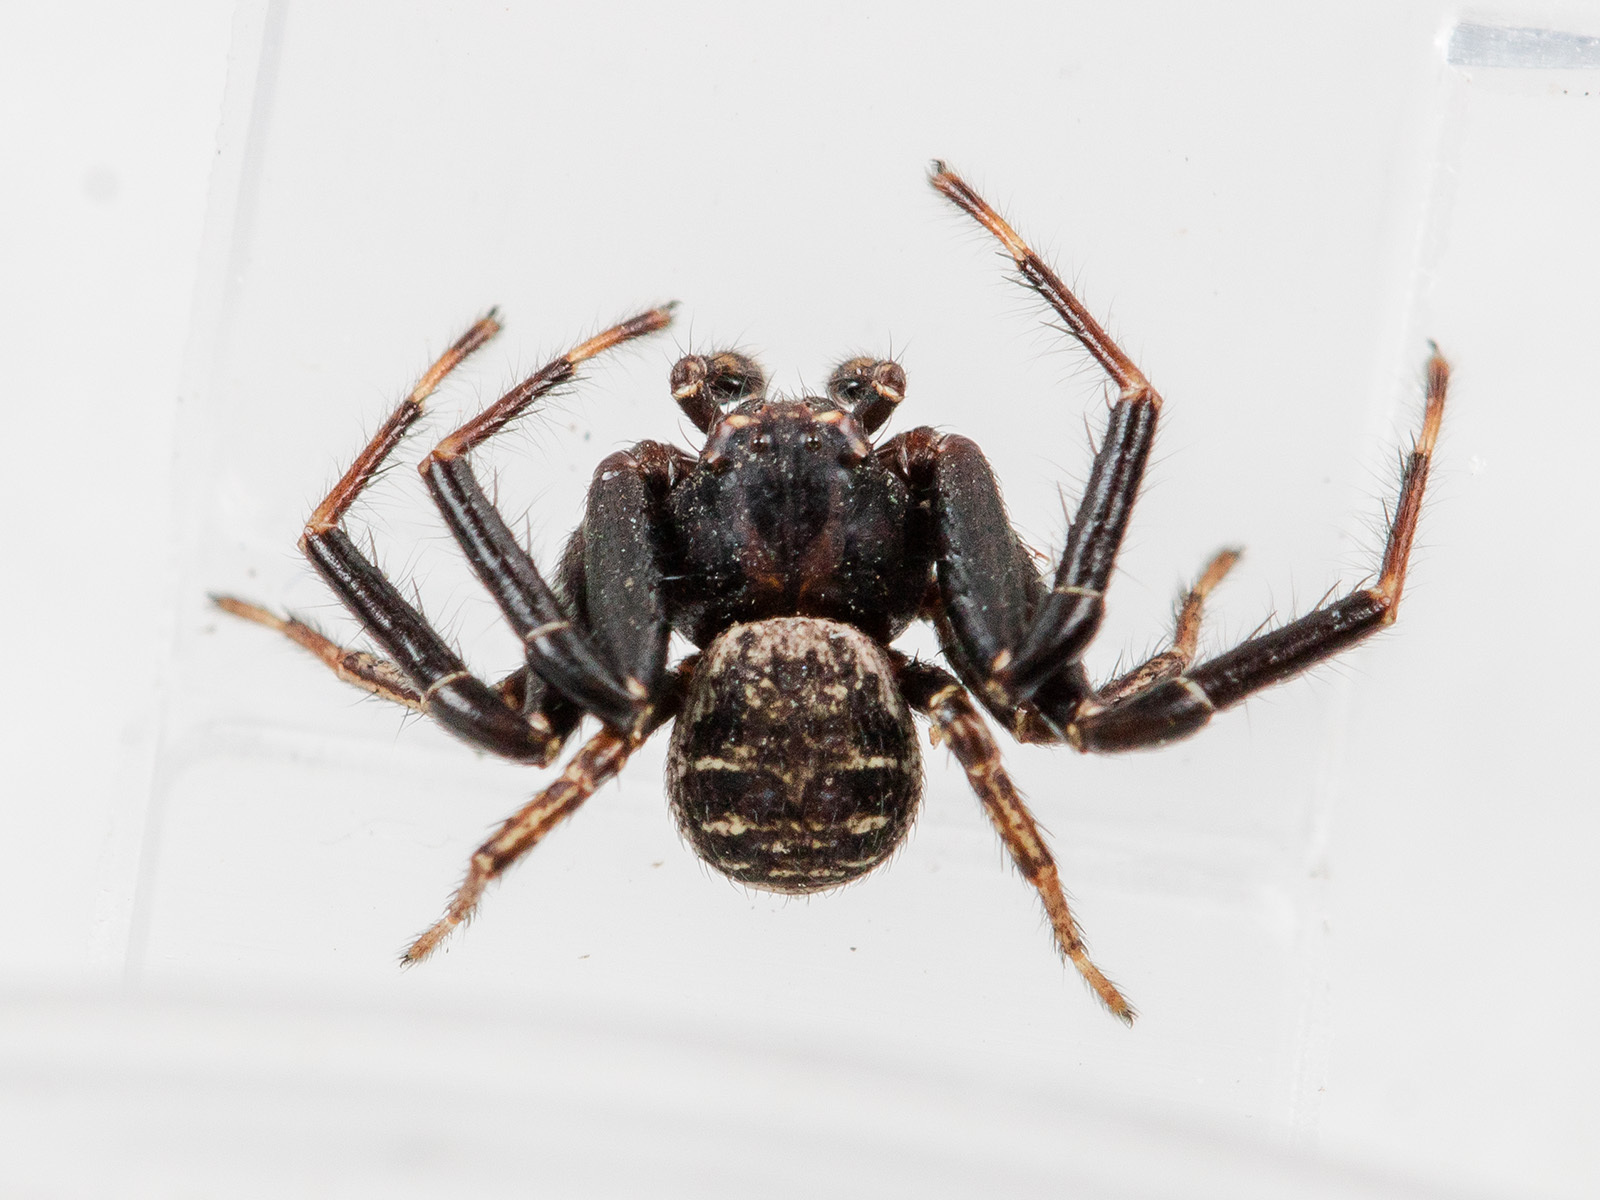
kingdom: Animalia
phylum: Arthropoda
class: Arachnida
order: Araneae
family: Thomisidae
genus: Xysticus
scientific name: Xysticus pseudoluctuosus
